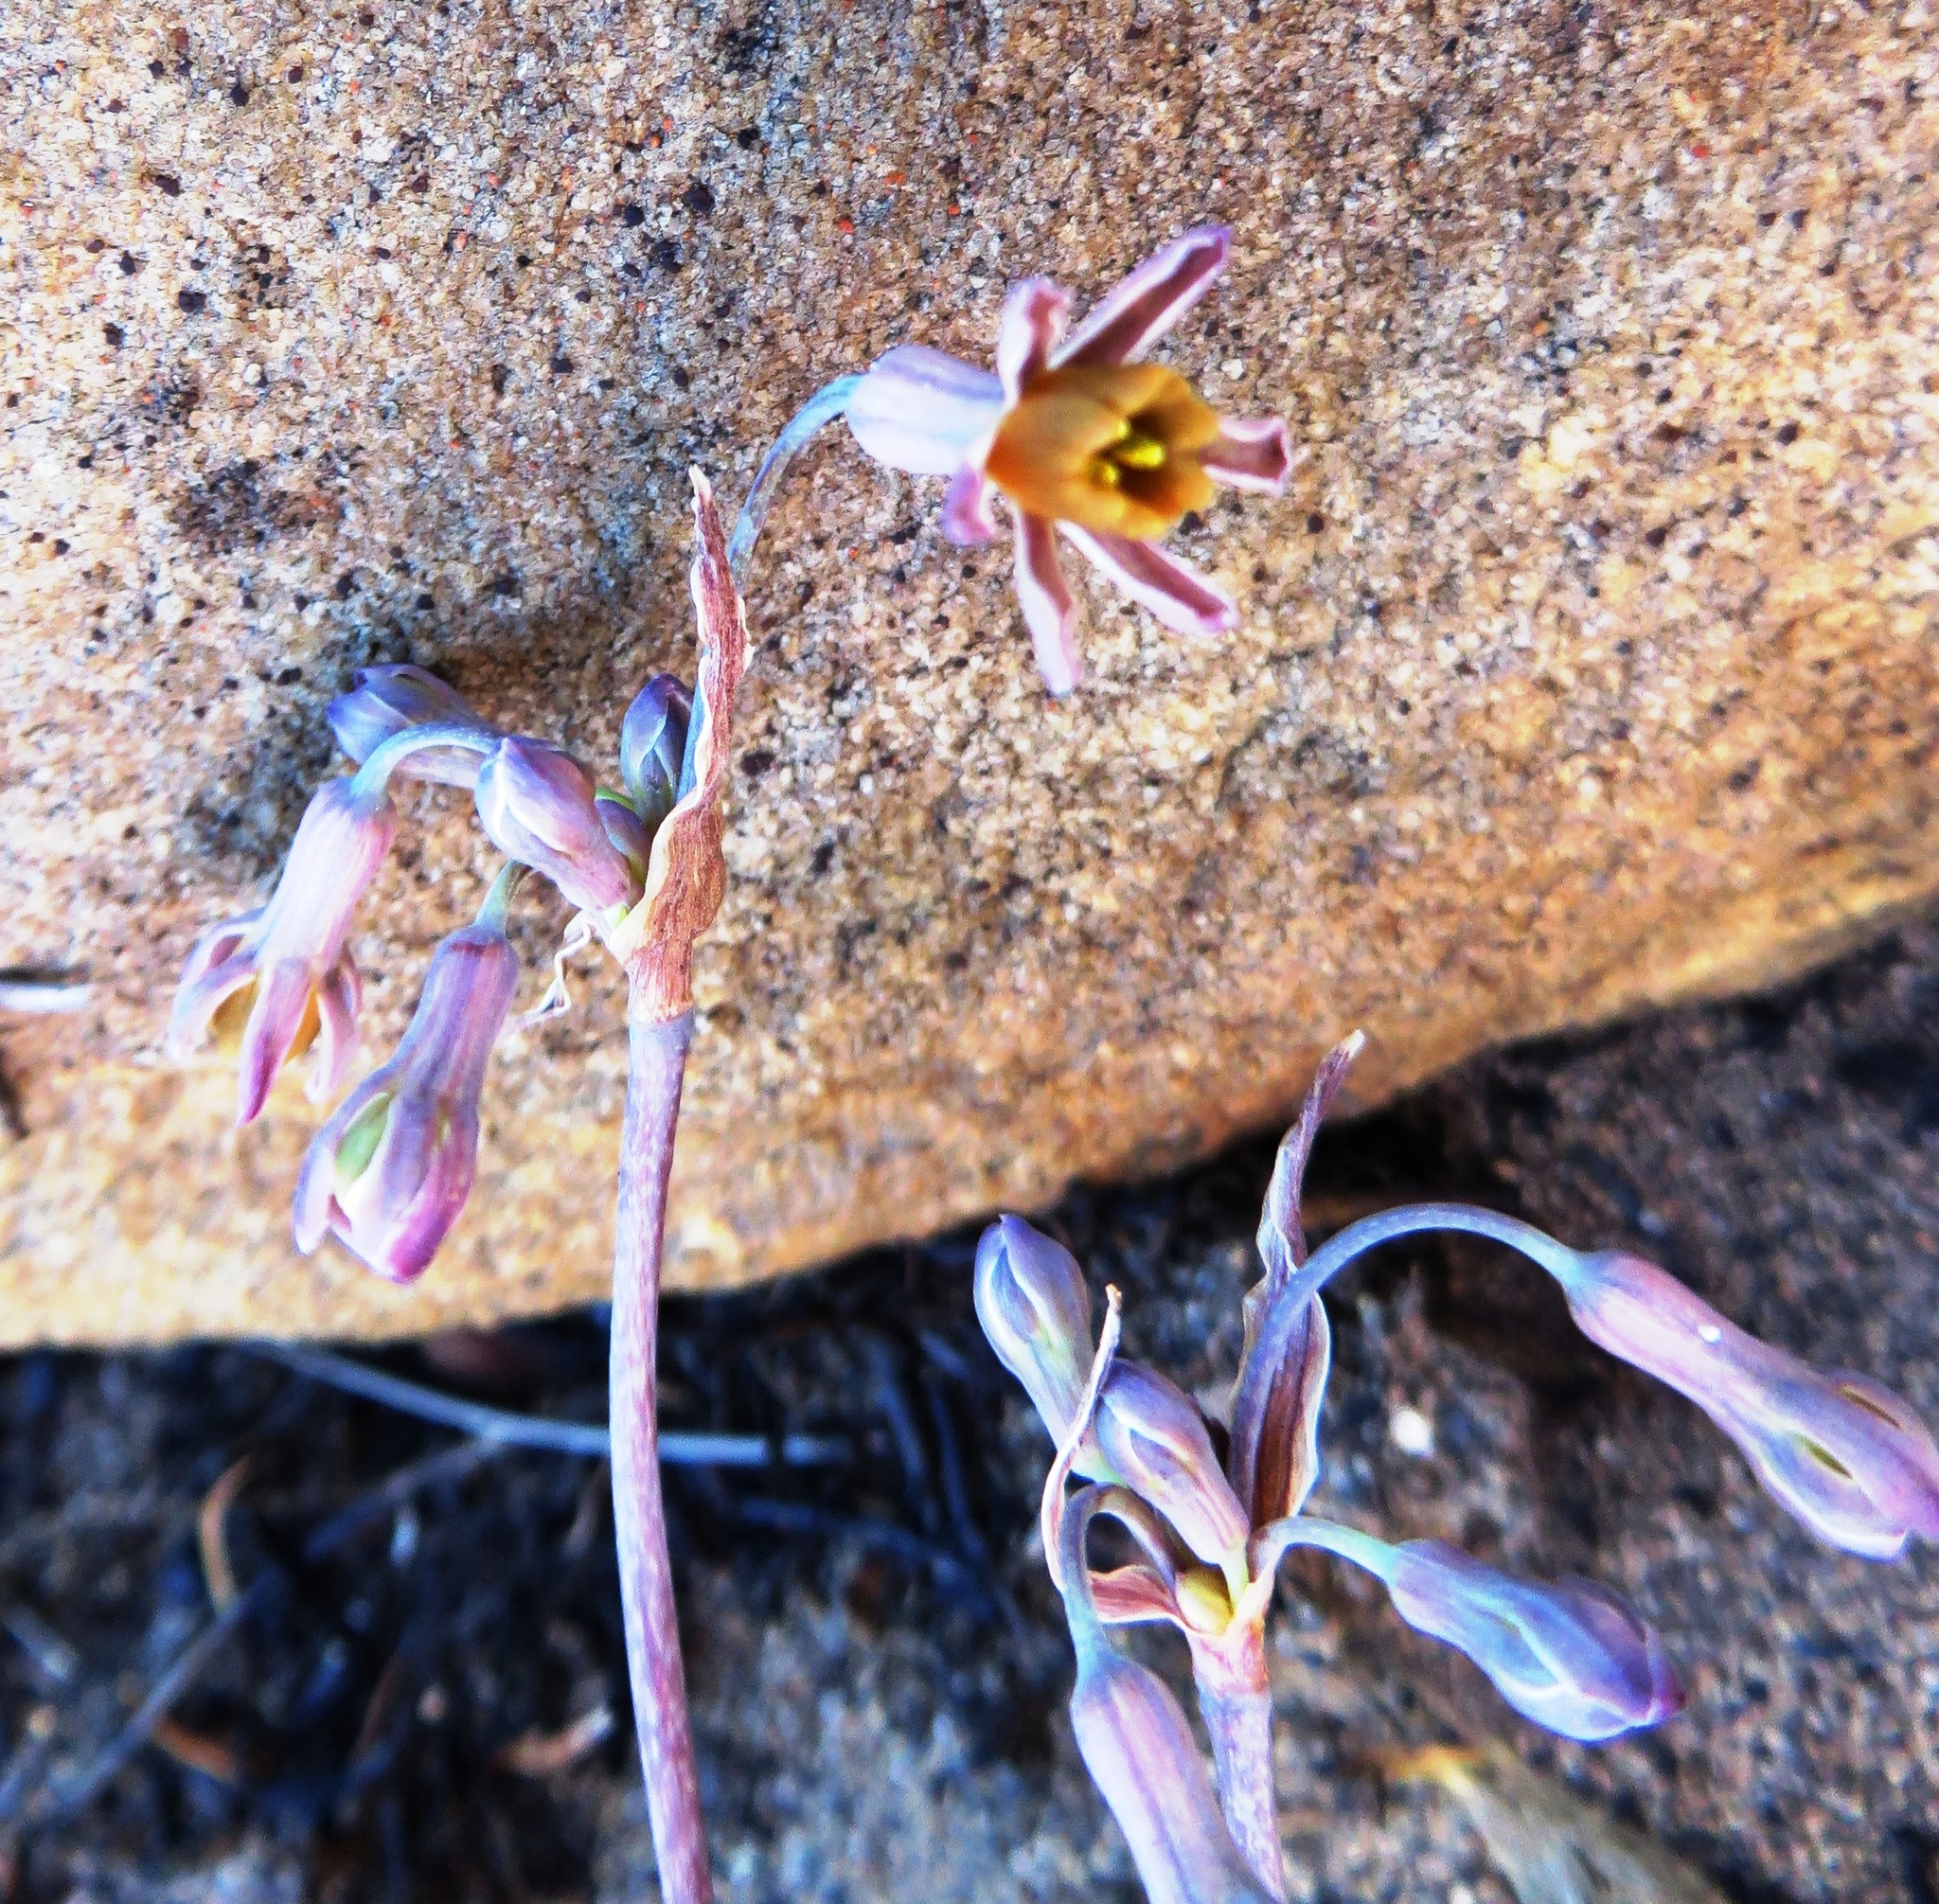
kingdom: Plantae
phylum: Tracheophyta
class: Liliopsida
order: Asparagales
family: Amaryllidaceae
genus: Tulbaghia
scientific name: Tulbaghia alliacea
